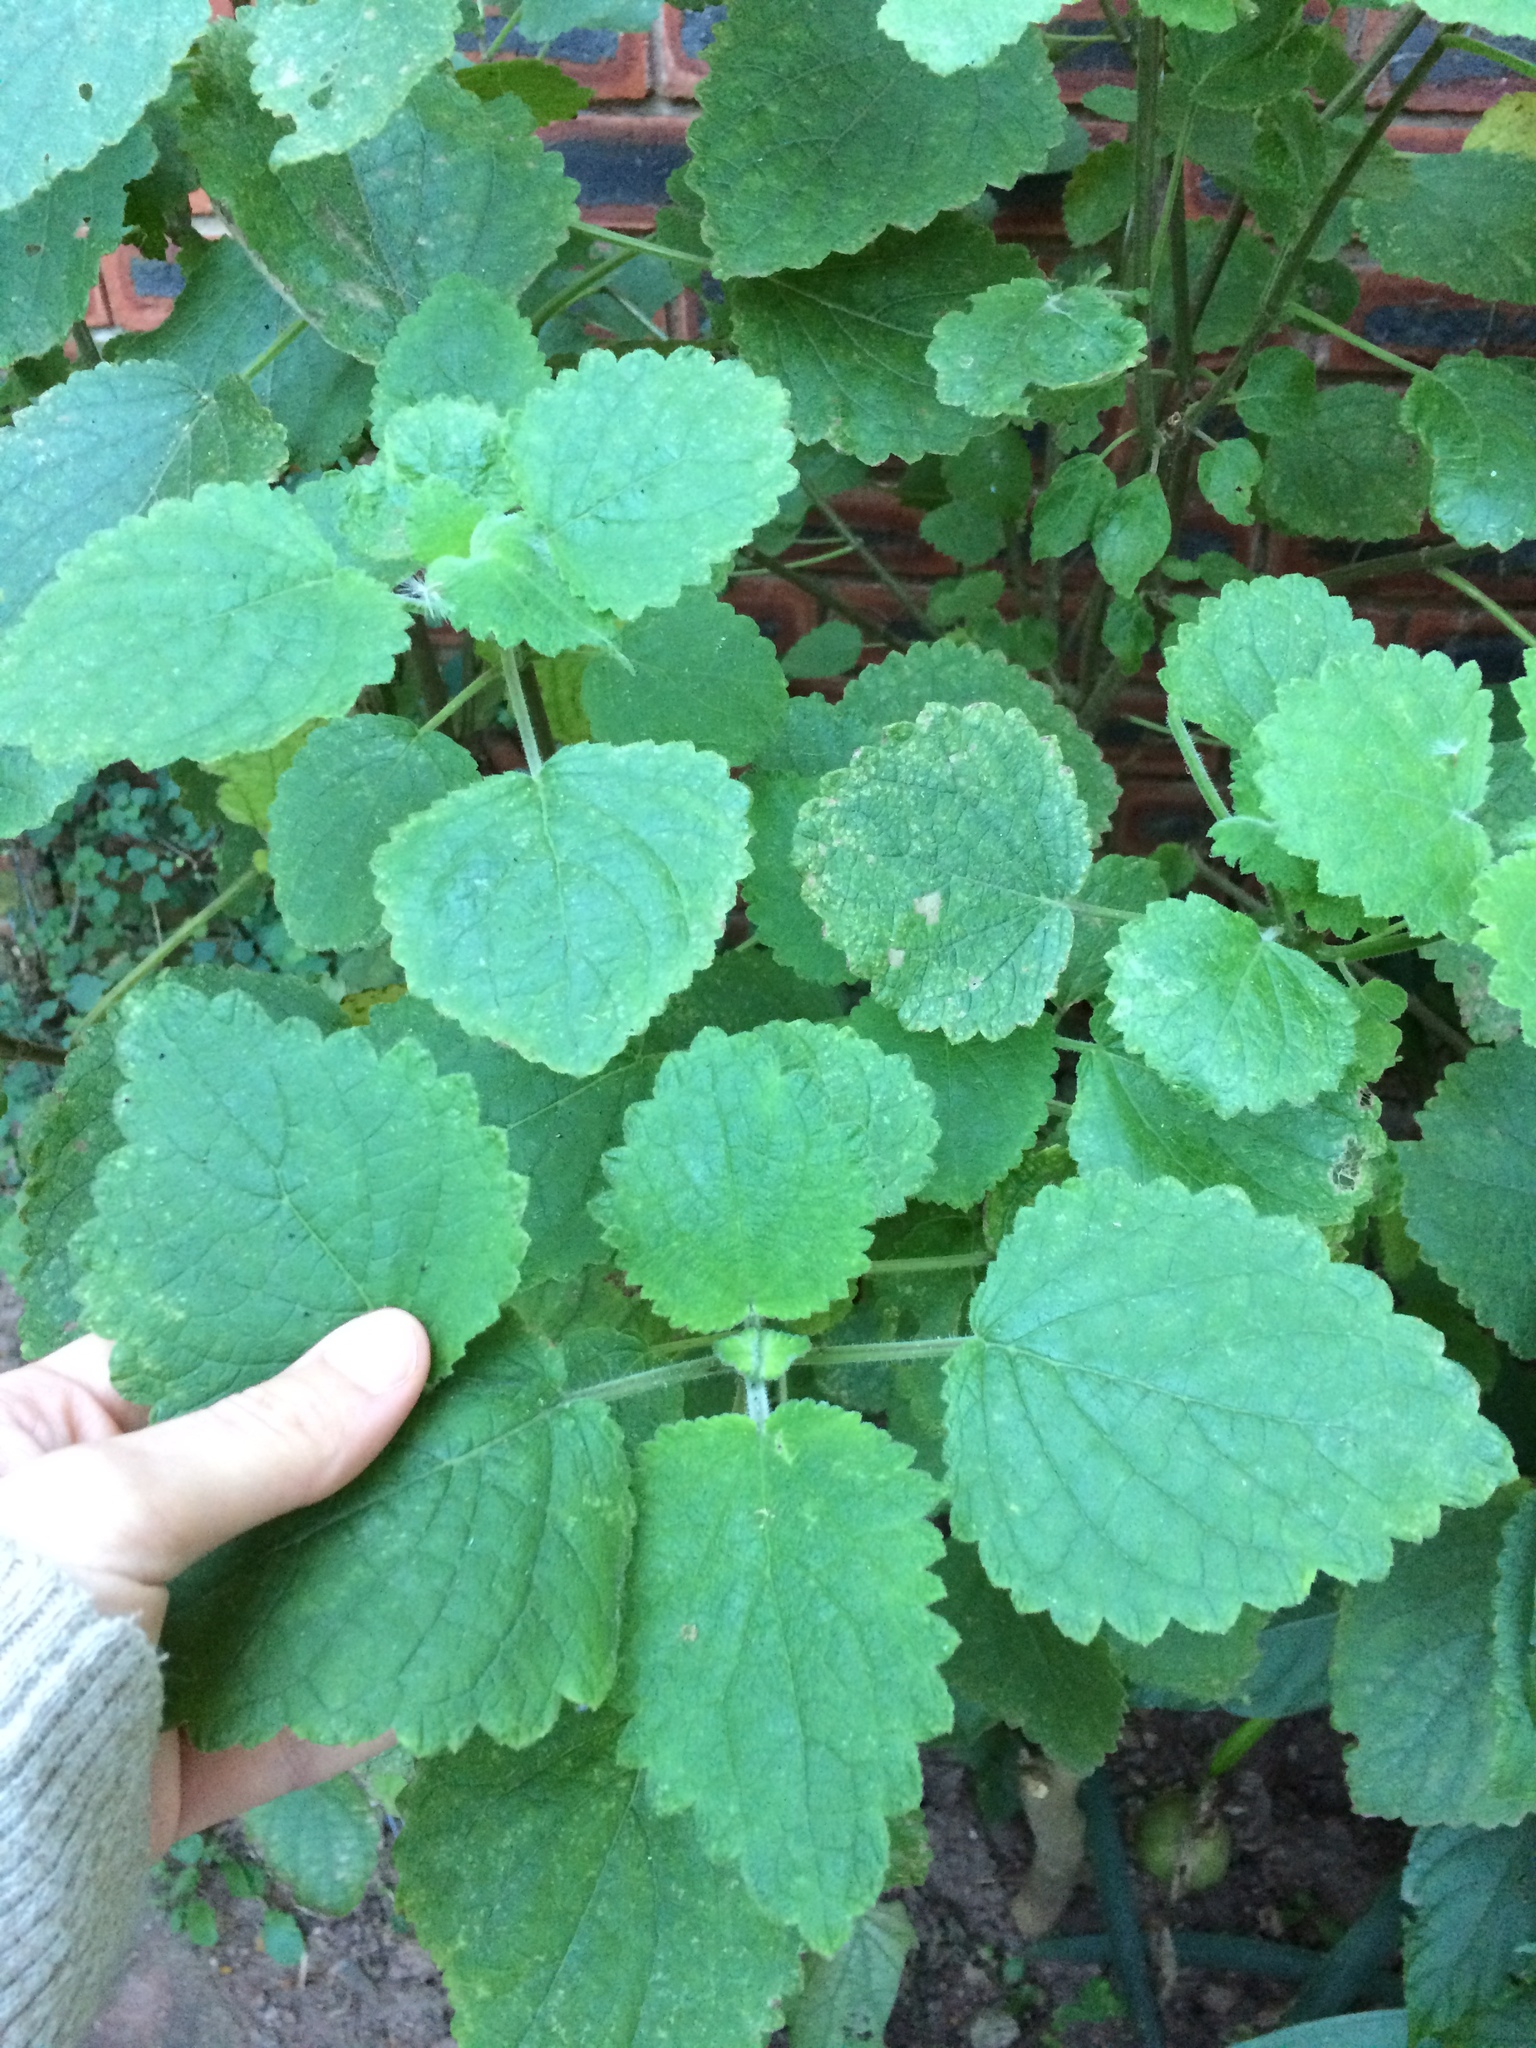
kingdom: Plantae
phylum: Tracheophyta
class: Magnoliopsida
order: Lamiales
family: Lamiaceae
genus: Tetradenia
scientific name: Tetradenia riparia
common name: Gingerbush
